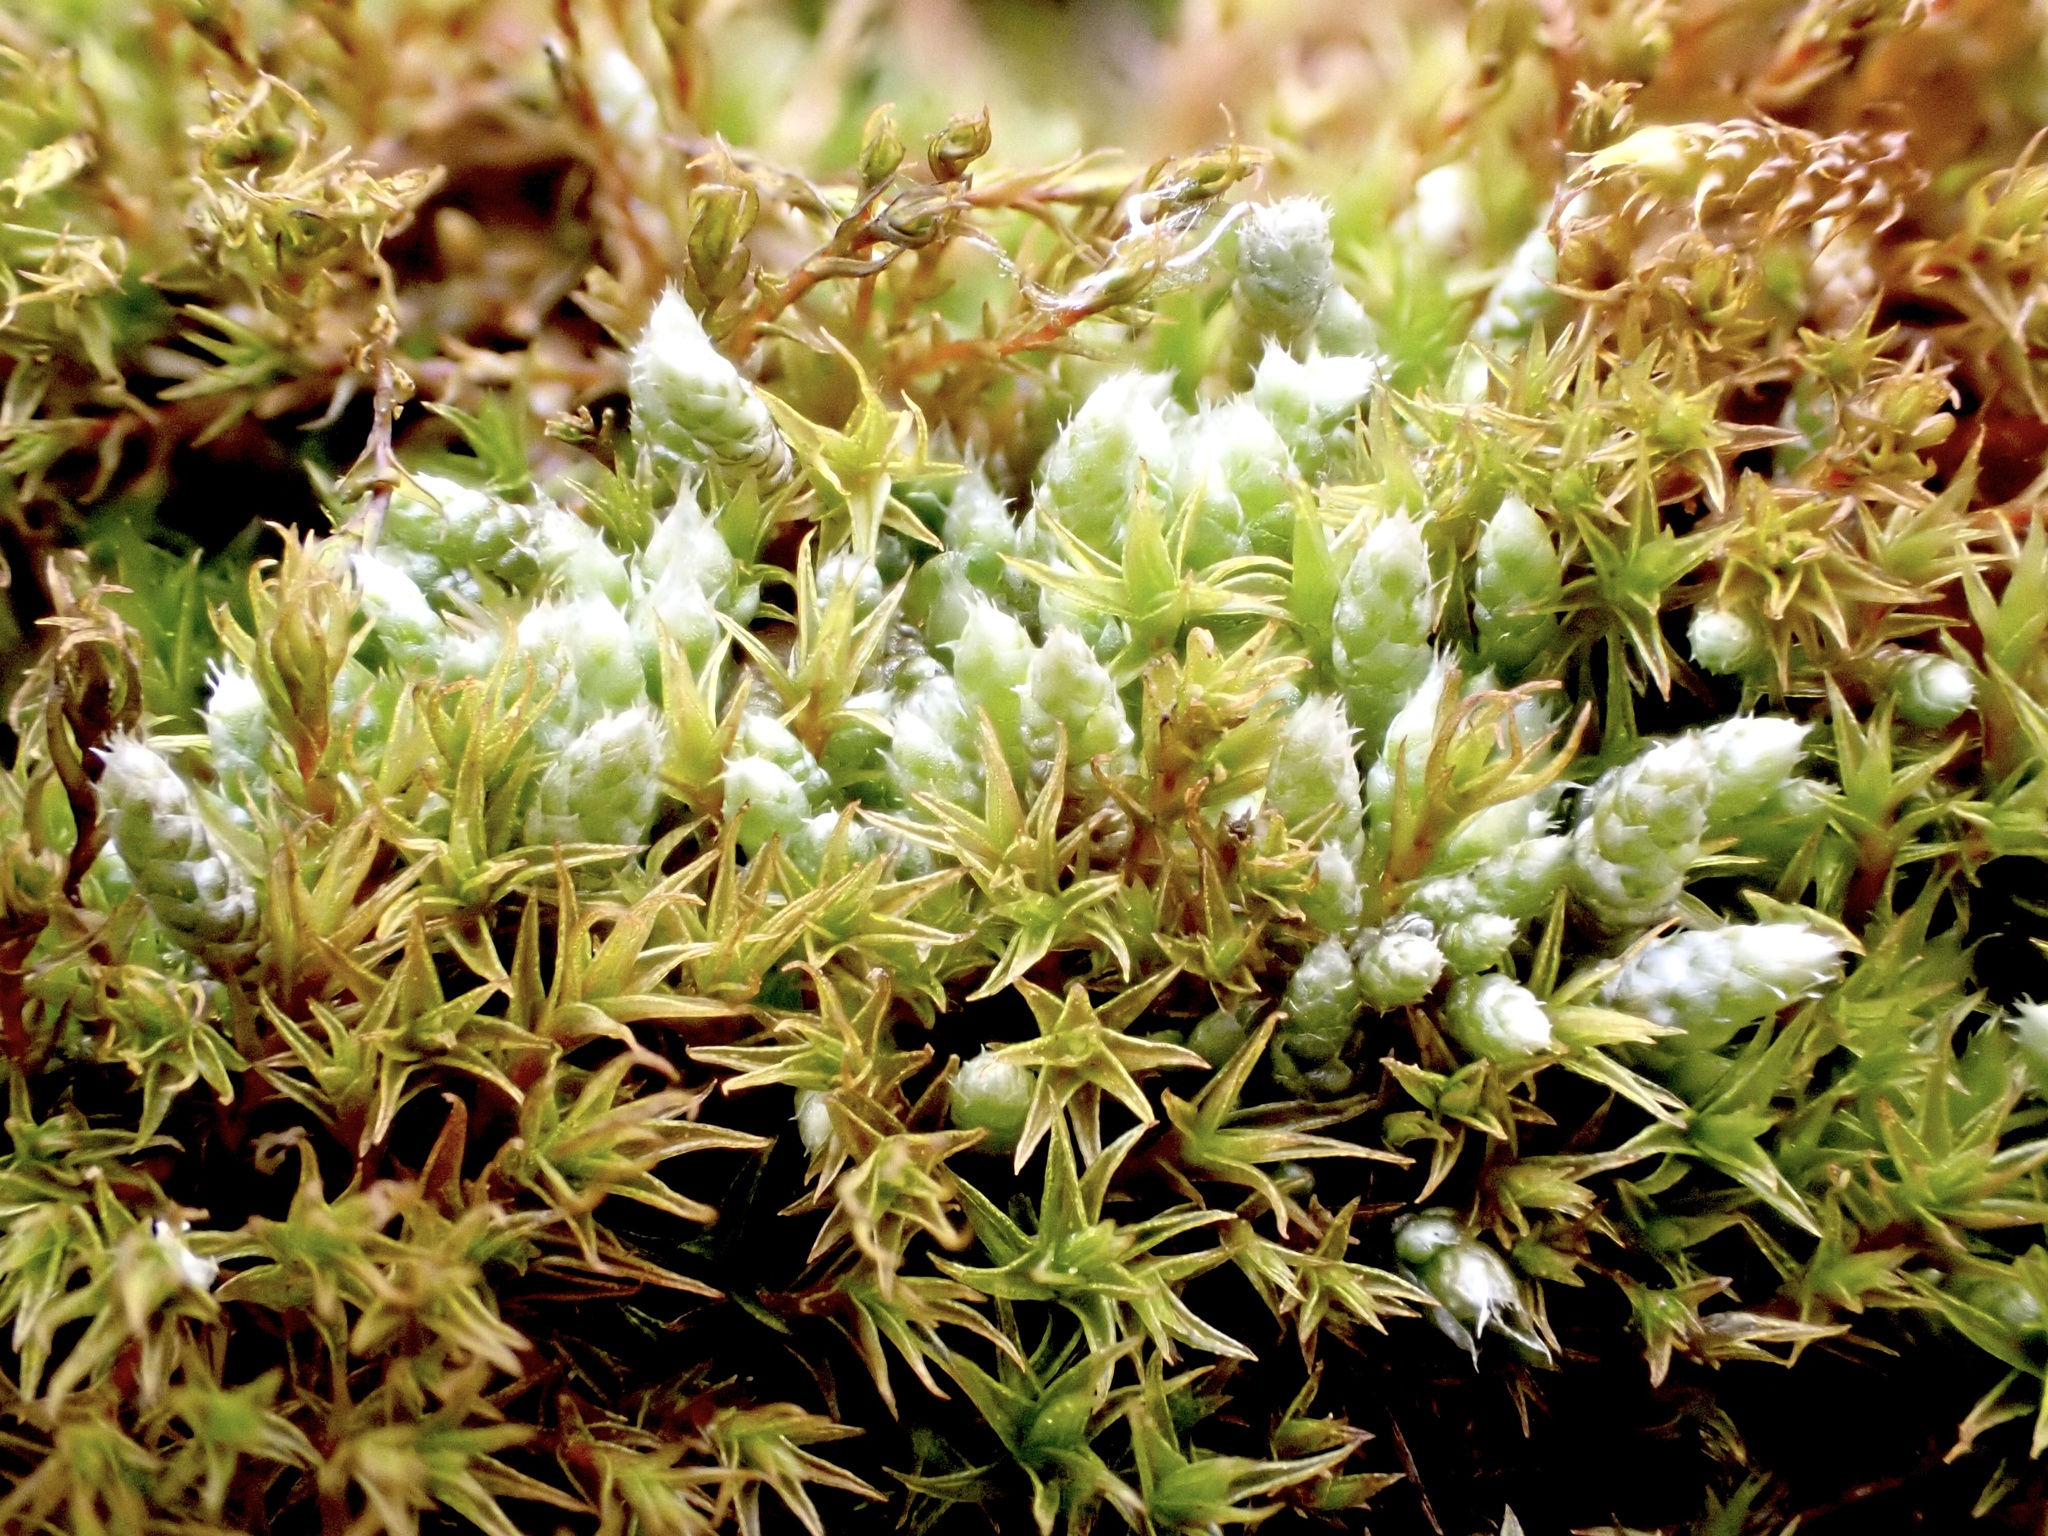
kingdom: Plantae
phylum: Bryophyta
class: Bryopsida
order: Bryales
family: Bryaceae
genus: Bryum
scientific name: Bryum argenteum
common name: Silver-moss
